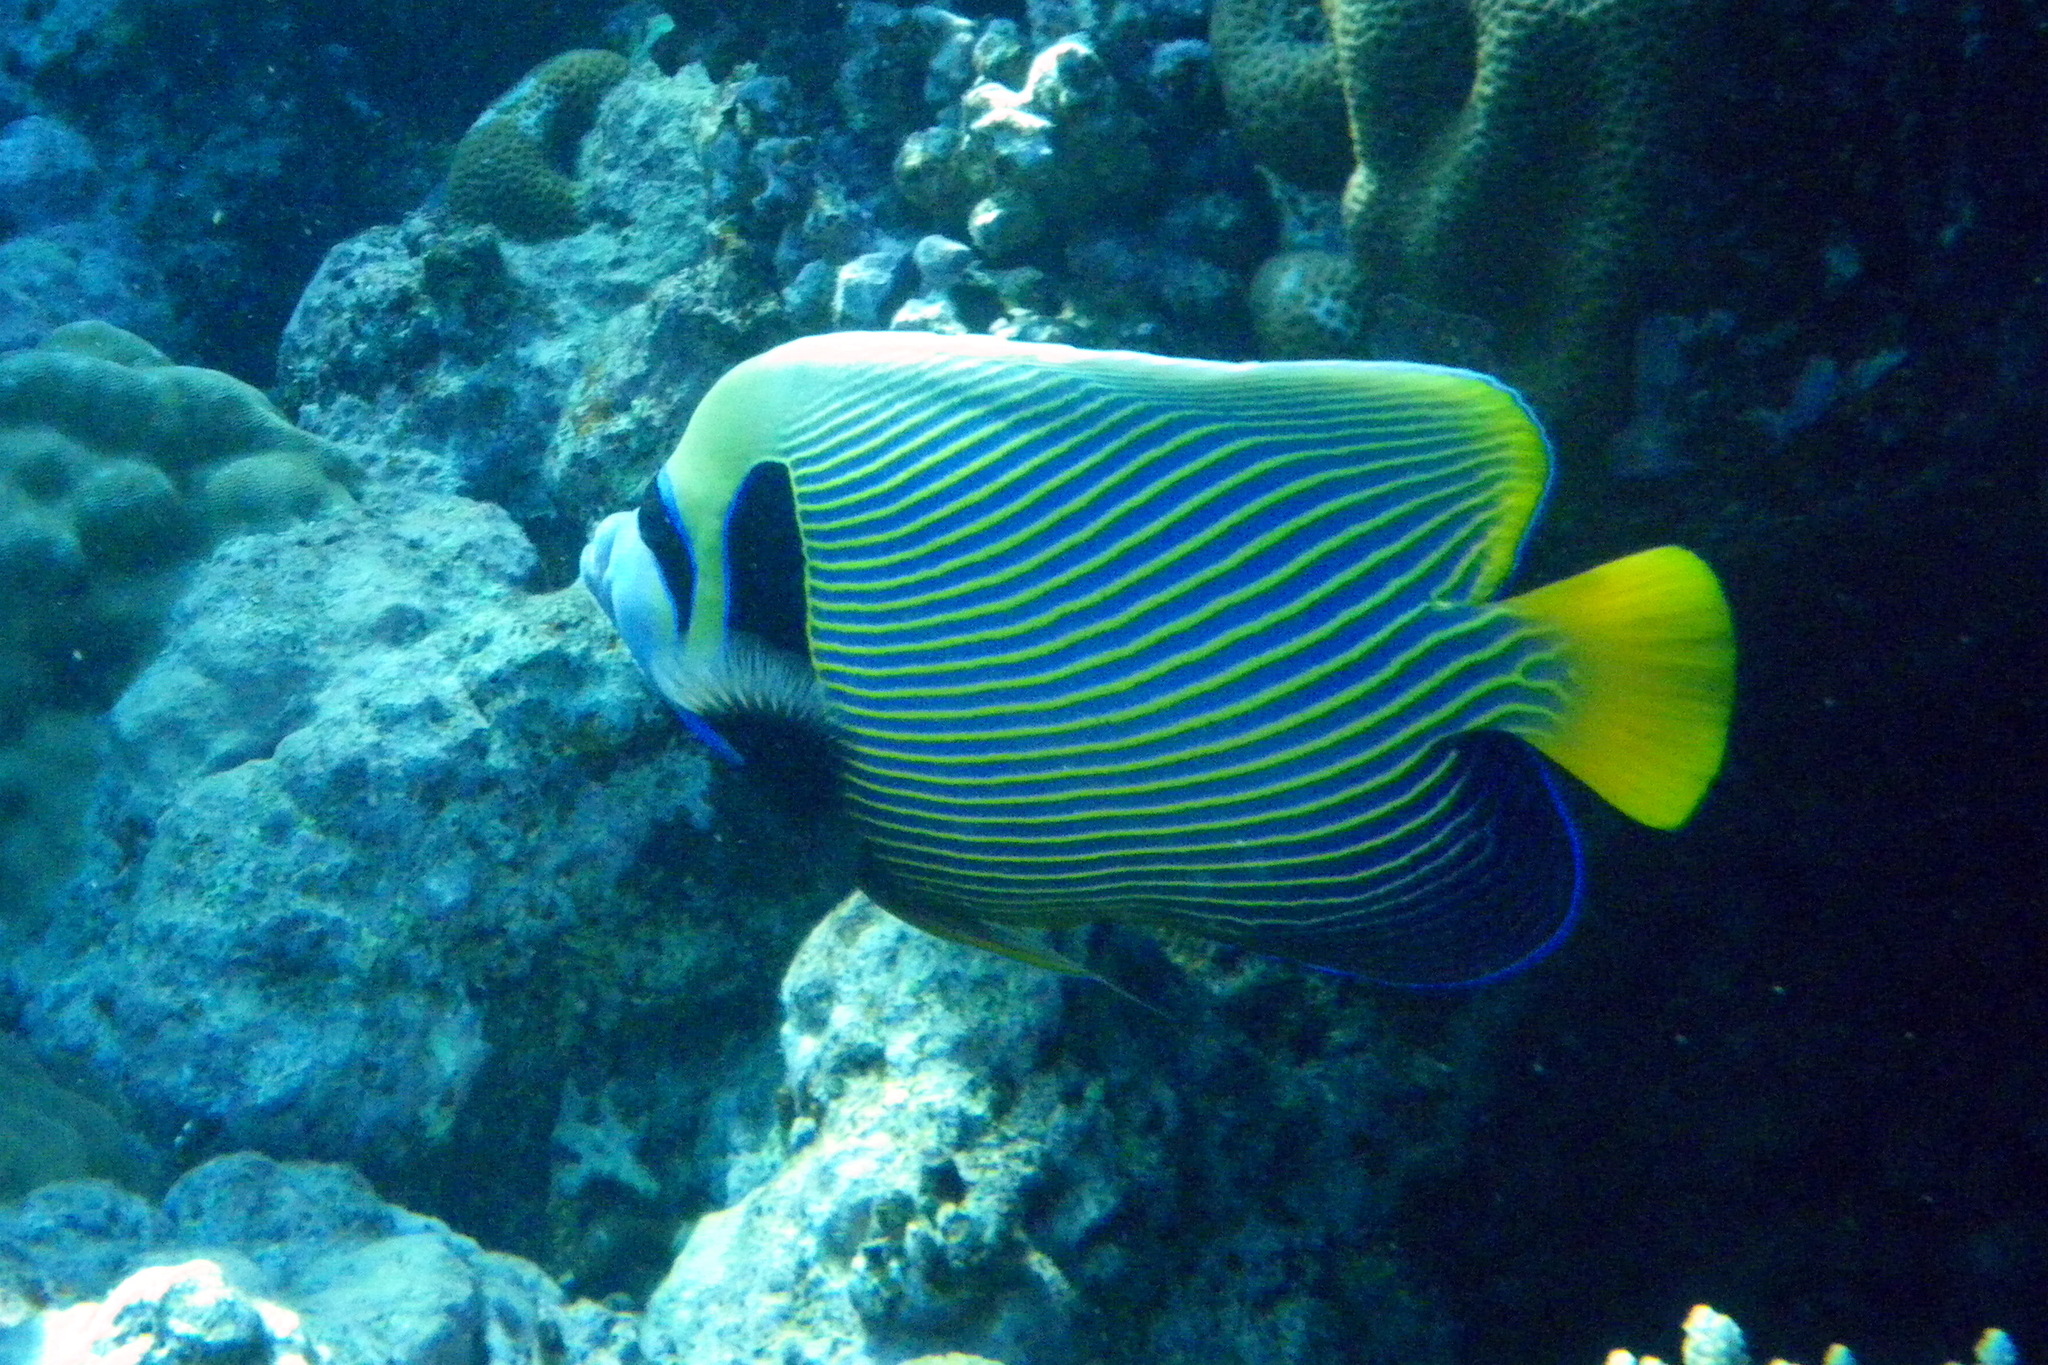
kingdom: Animalia
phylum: Chordata
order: Perciformes
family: Pomacanthidae
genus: Pomacanthus
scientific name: Pomacanthus imperator
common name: Emperor angelfish
